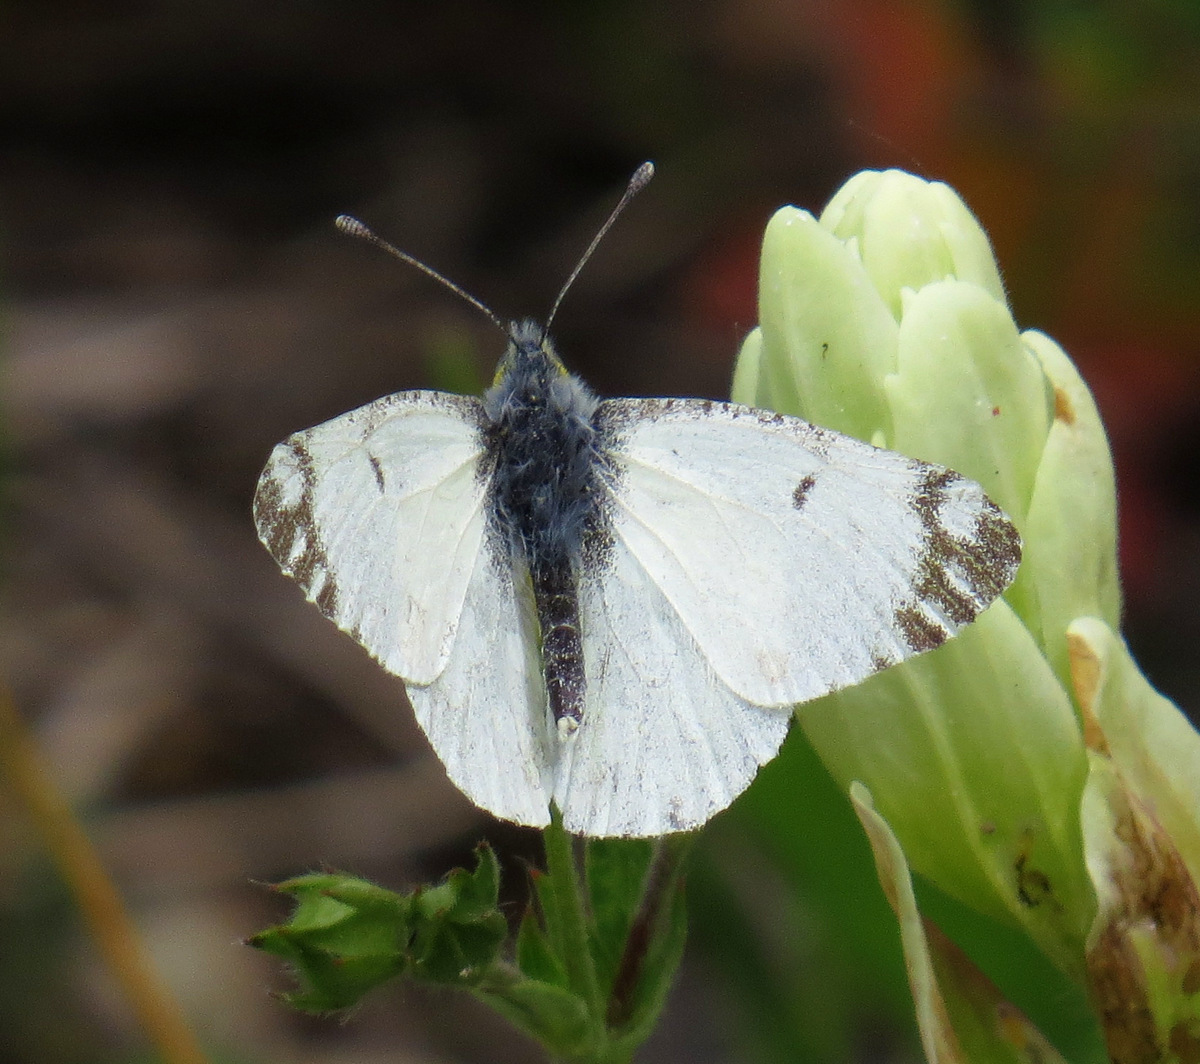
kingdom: Animalia
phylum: Arthropoda
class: Insecta
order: Lepidoptera
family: Pieridae
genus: Euchloe
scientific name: Euchloe ausonides
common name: Creamy marblewing
